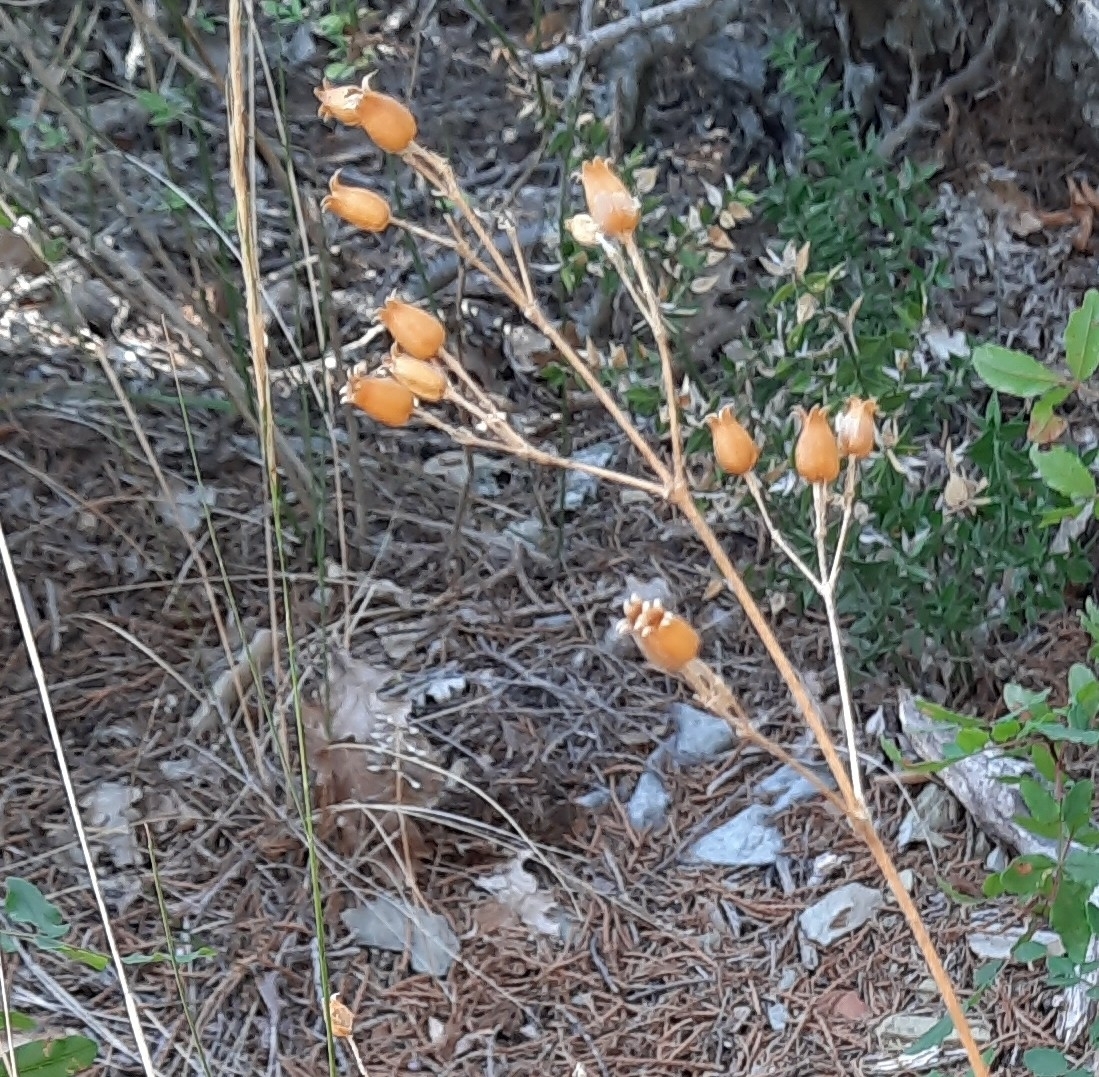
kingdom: Plantae
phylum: Tracheophyta
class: Magnoliopsida
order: Caryophyllales
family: Caryophyllaceae
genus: Silene
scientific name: Silene italica
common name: Italian catchfly
